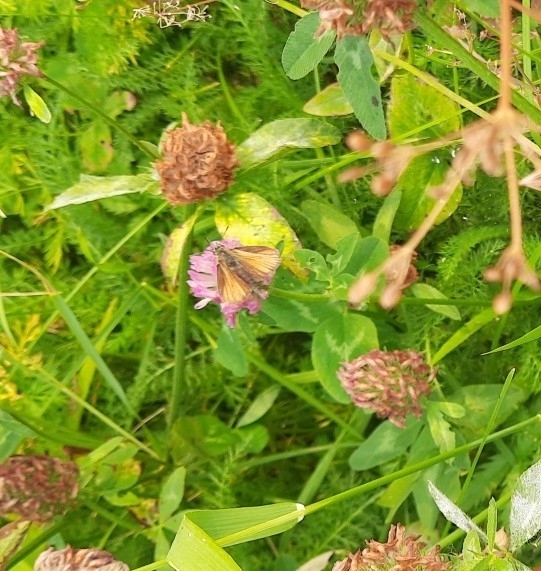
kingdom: Animalia
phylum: Arthropoda
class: Insecta
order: Lepidoptera
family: Hesperiidae
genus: Thymelicus
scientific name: Thymelicus lineola
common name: Essex skipper
